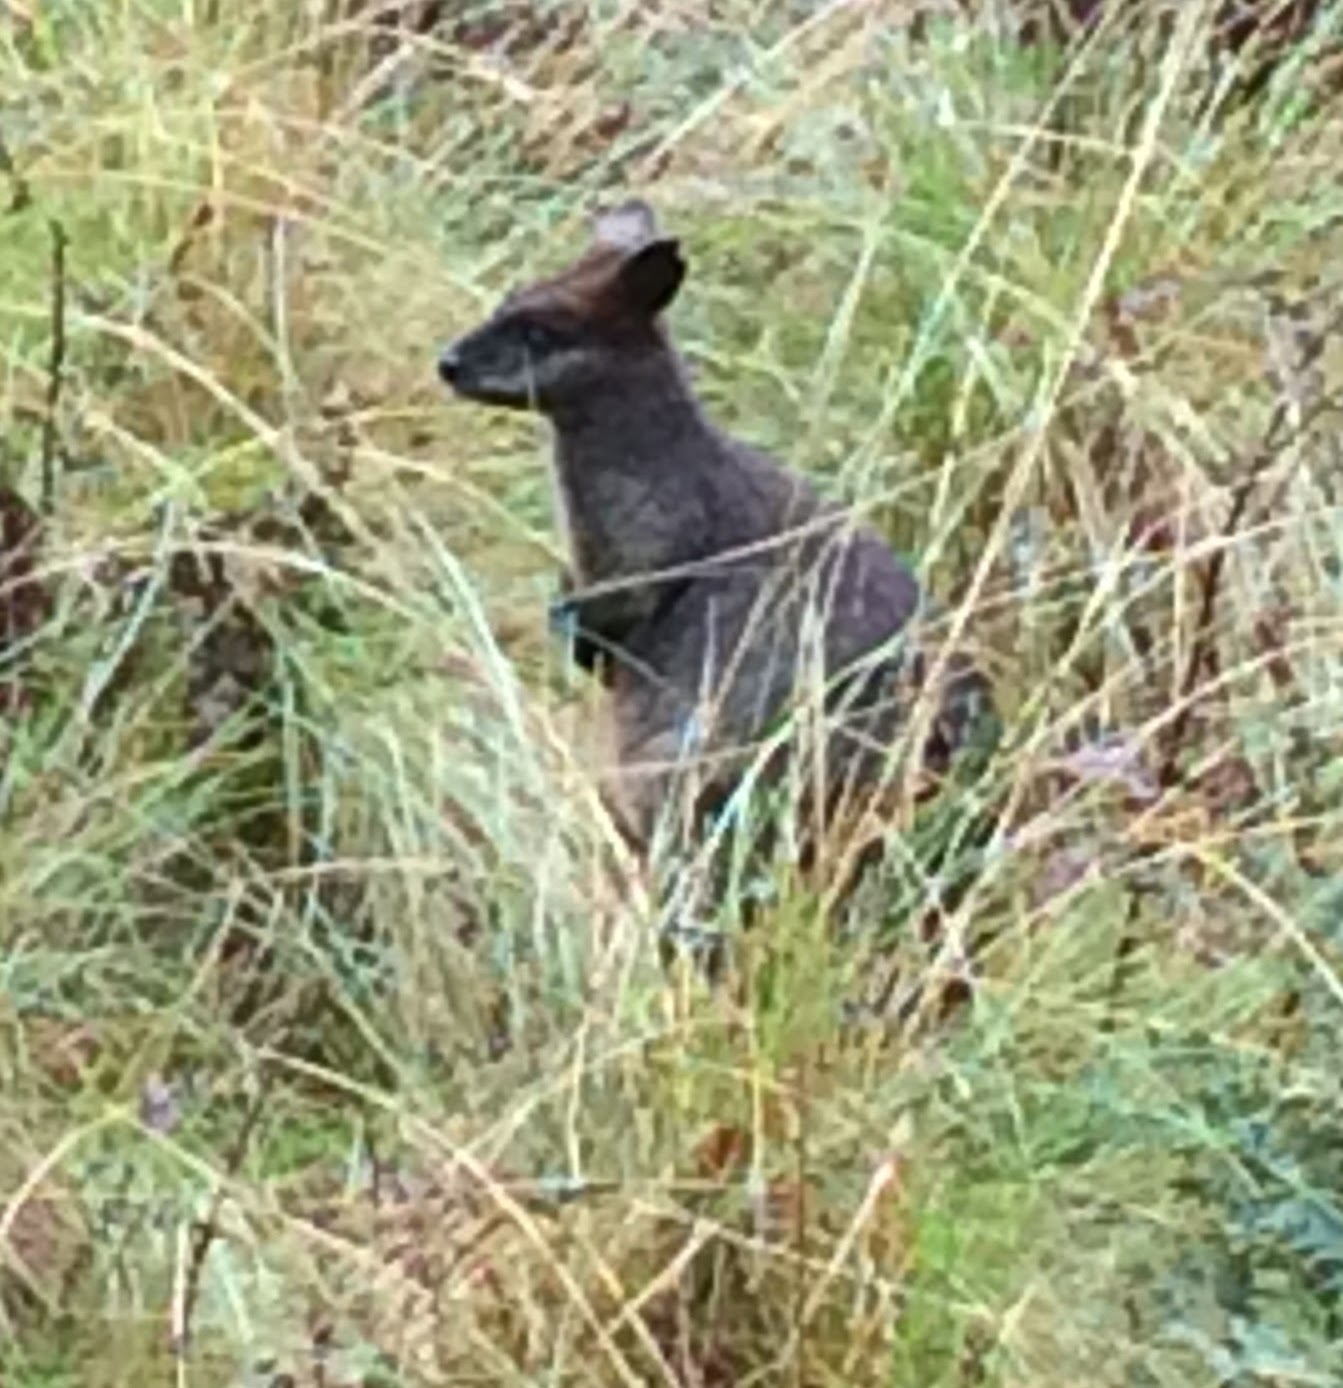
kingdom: Animalia
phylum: Chordata
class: Mammalia
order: Diprotodontia
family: Macropodidae
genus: Wallabia
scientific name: Wallabia bicolor
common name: Swamp wallaby
